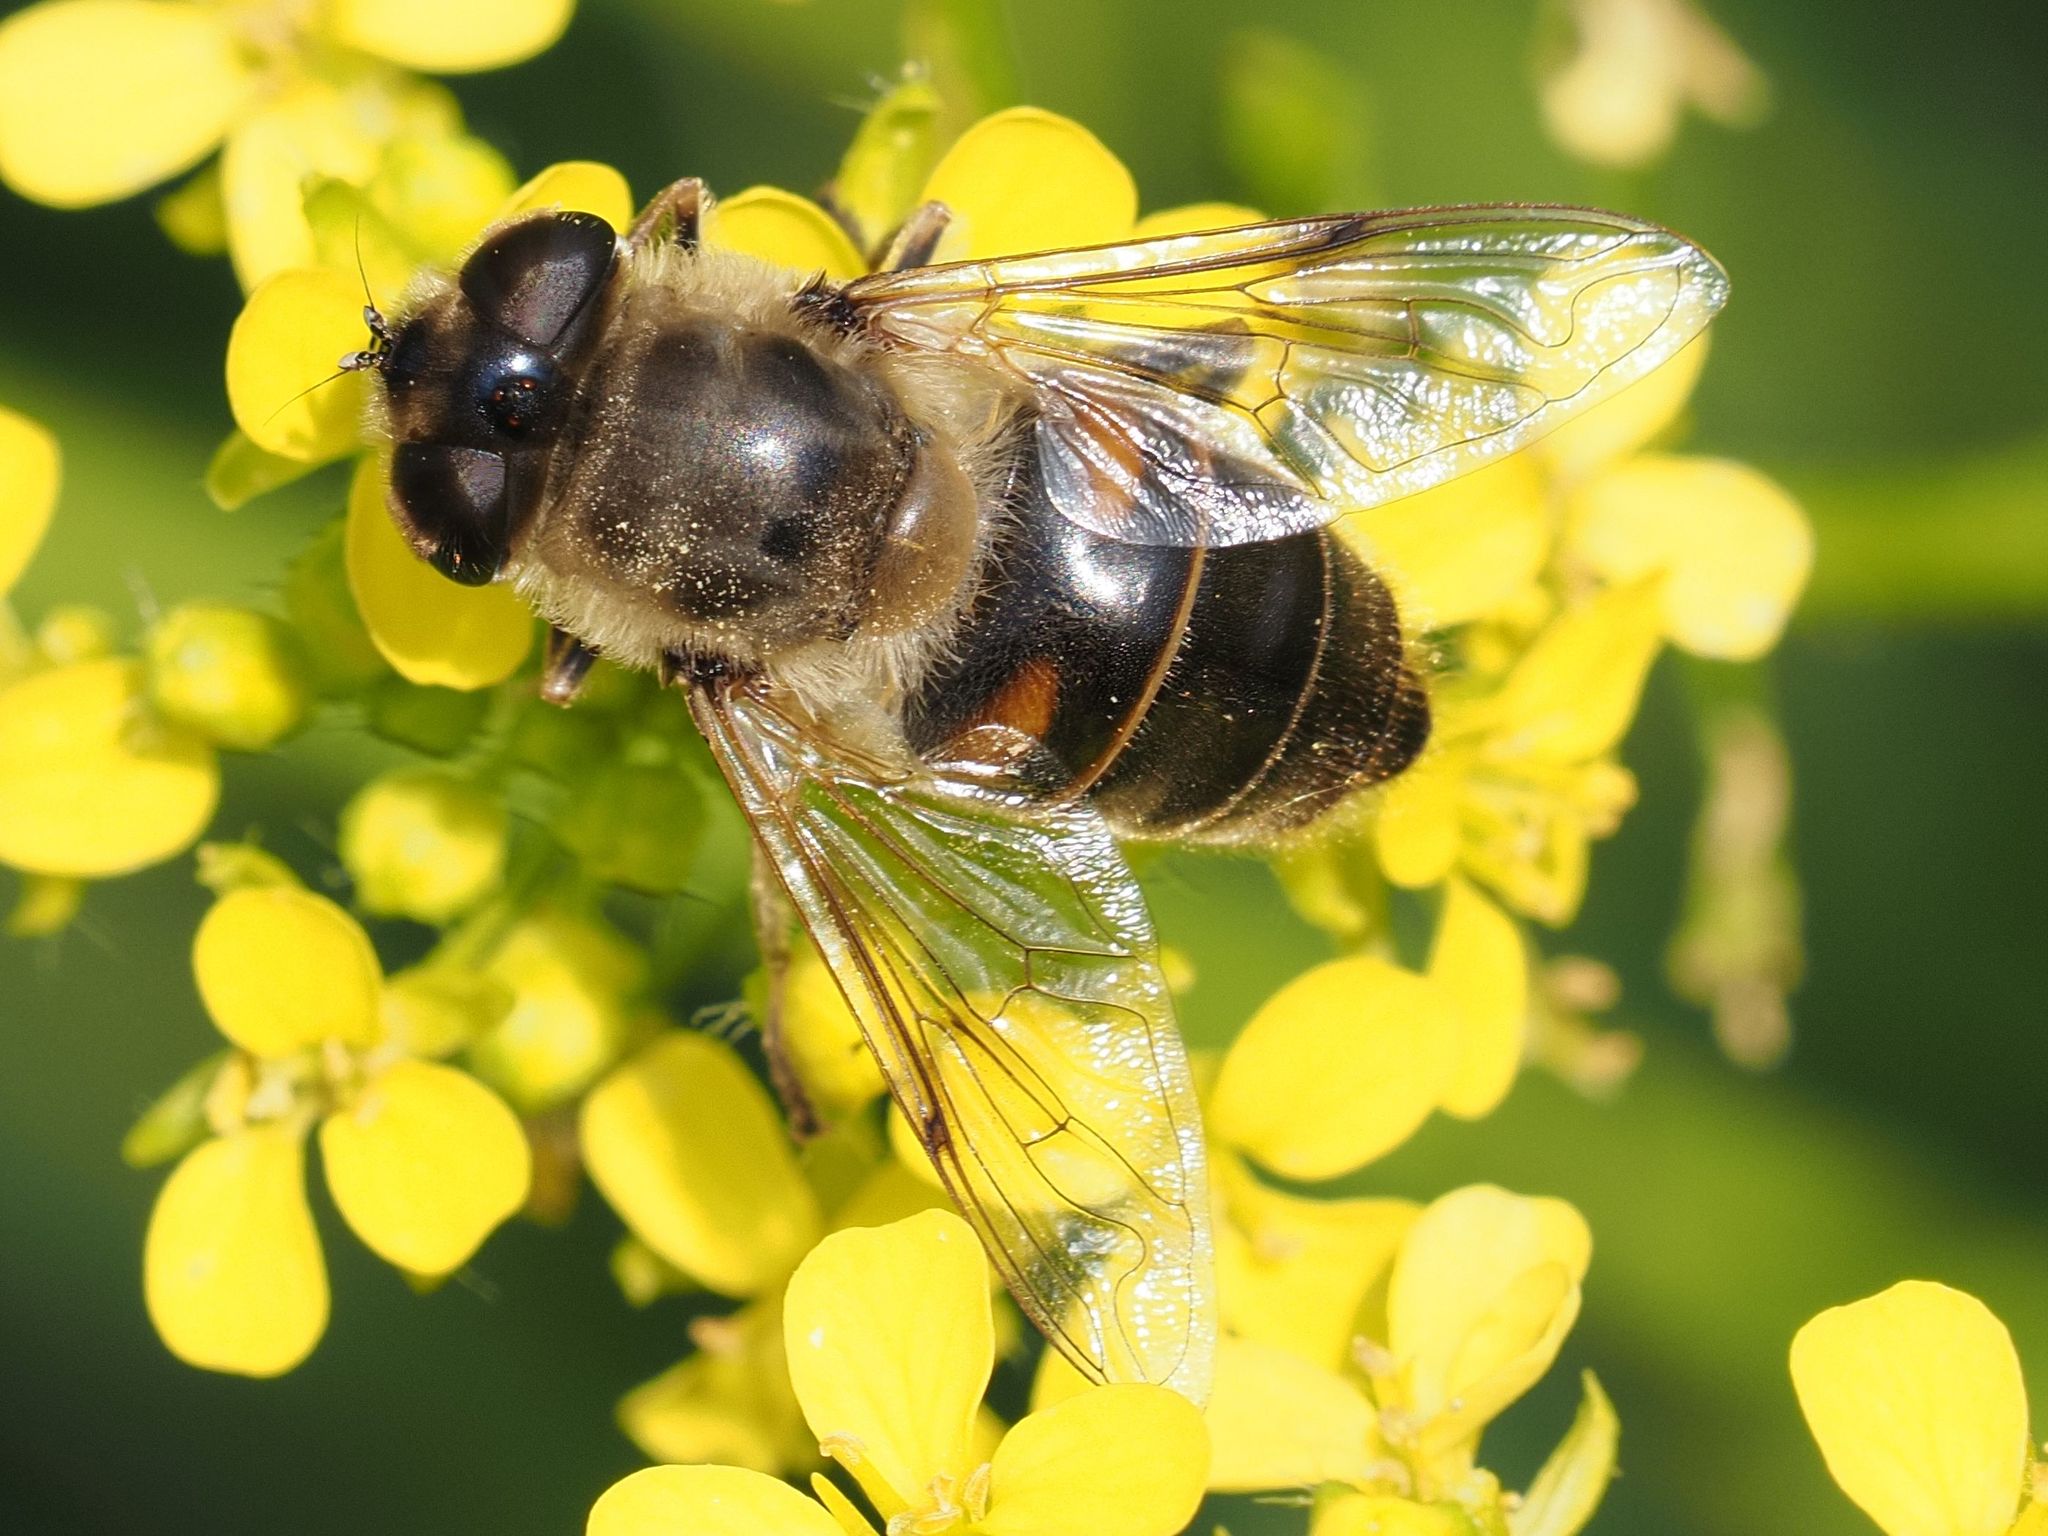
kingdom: Animalia
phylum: Arthropoda
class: Insecta
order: Diptera
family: Syrphidae
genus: Eristalis
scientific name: Eristalis tenax
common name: Drone fly
